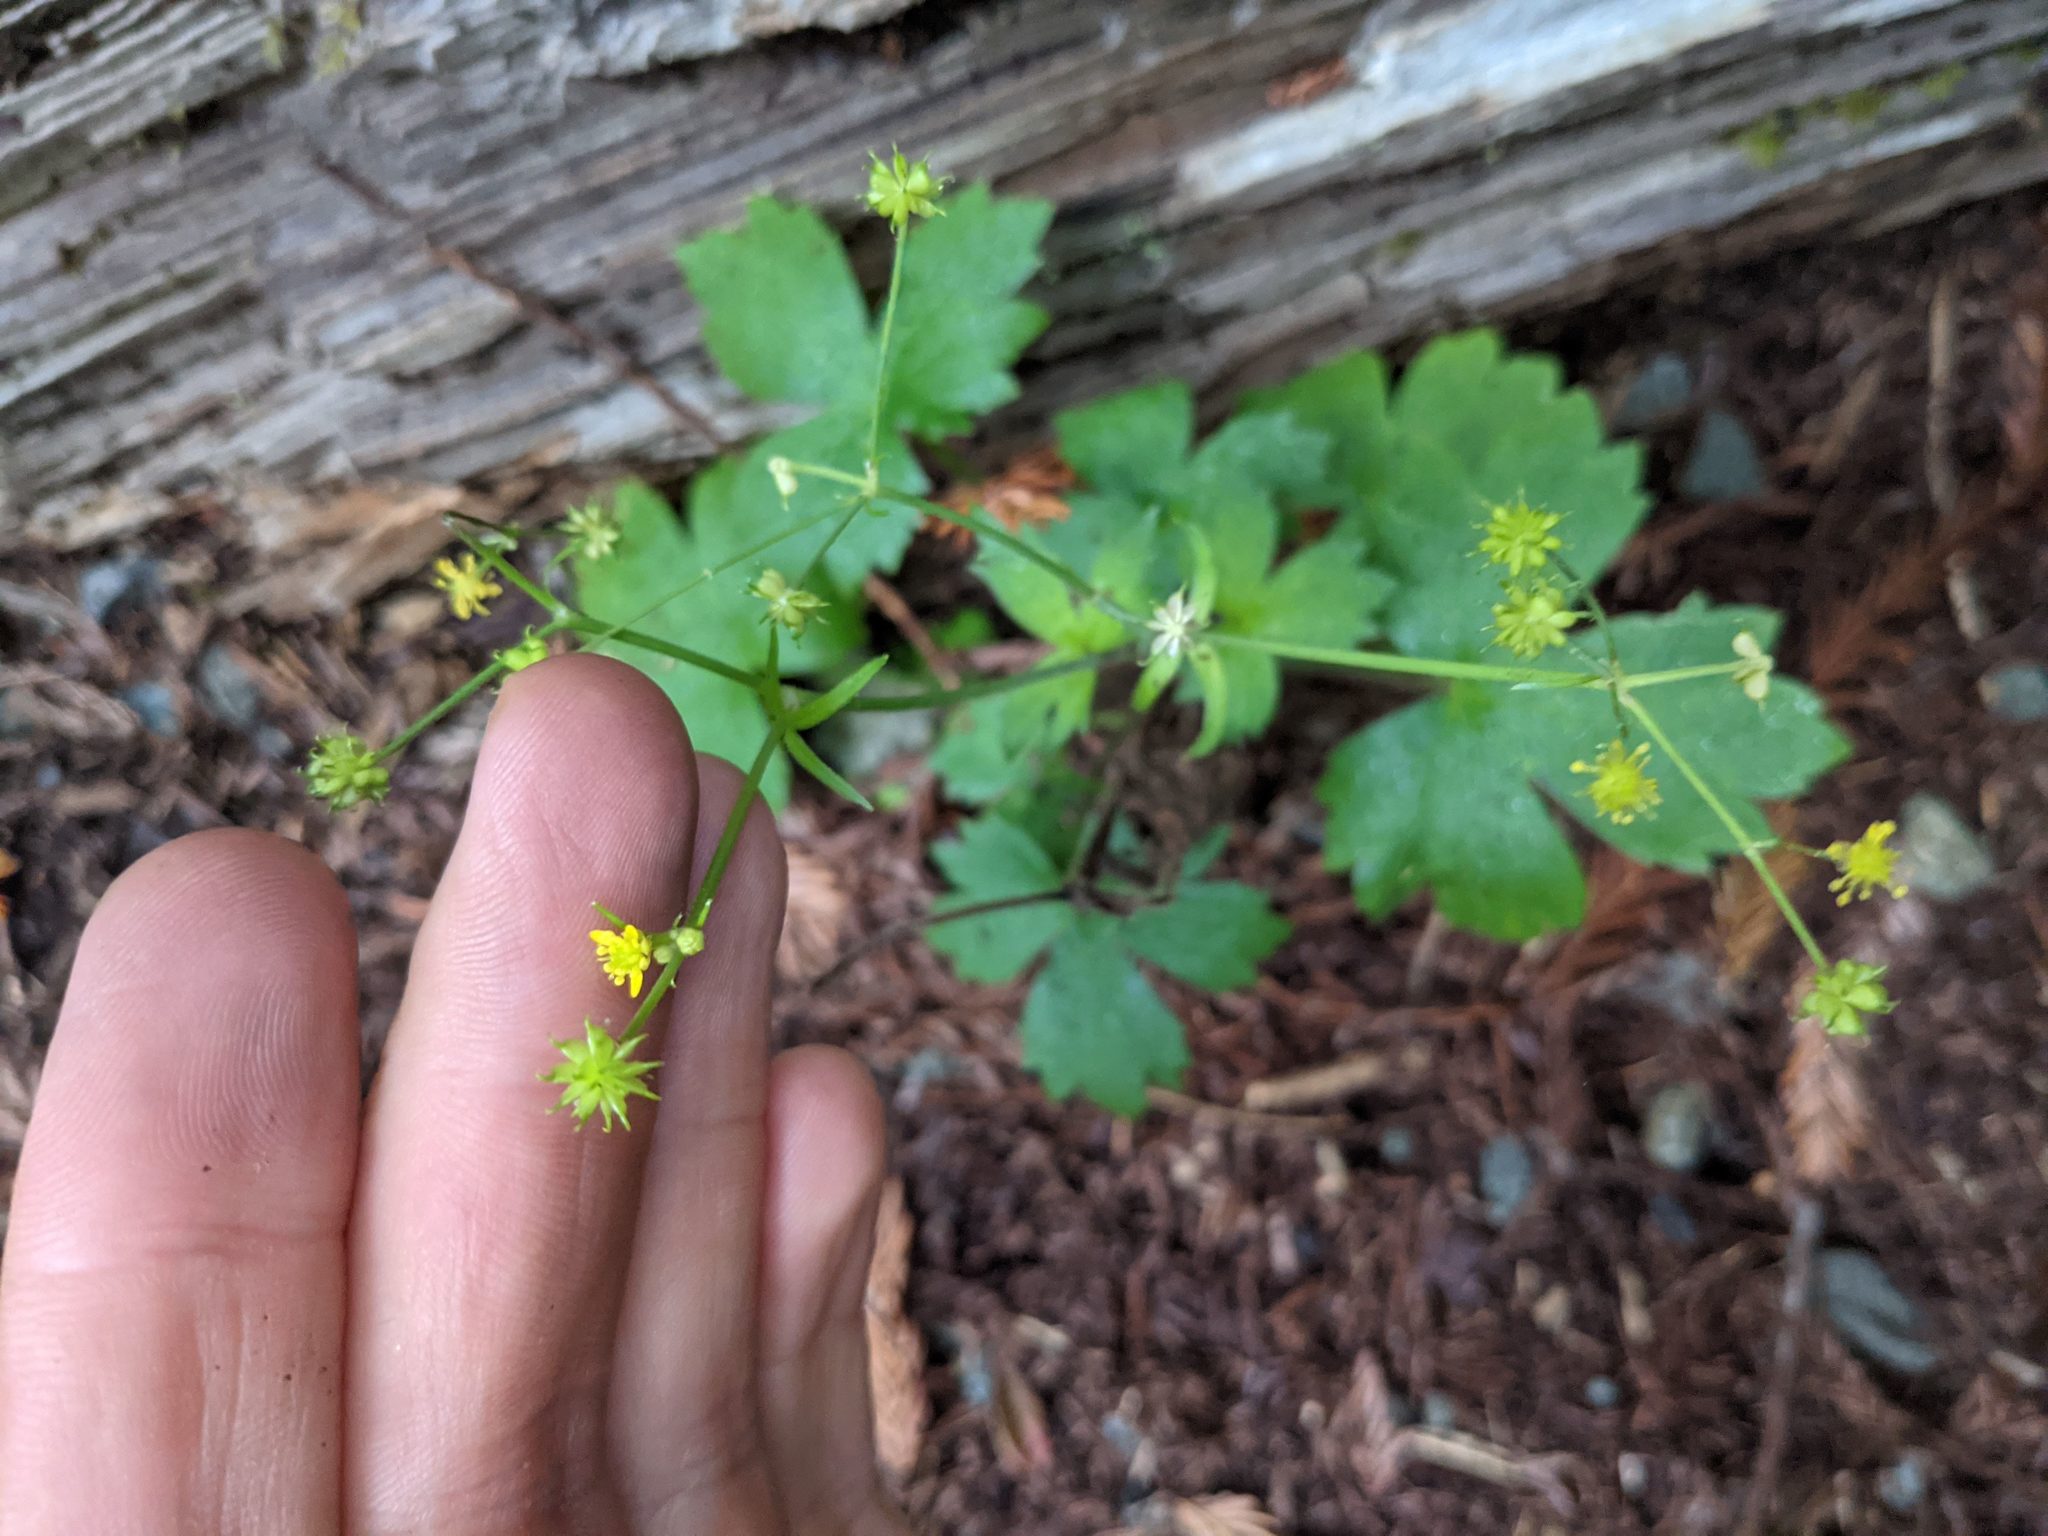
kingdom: Plantae
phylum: Tracheophyta
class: Magnoliopsida
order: Ranunculales
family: Ranunculaceae
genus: Ranunculus
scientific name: Ranunculus uncinatus
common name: Little buttercup
